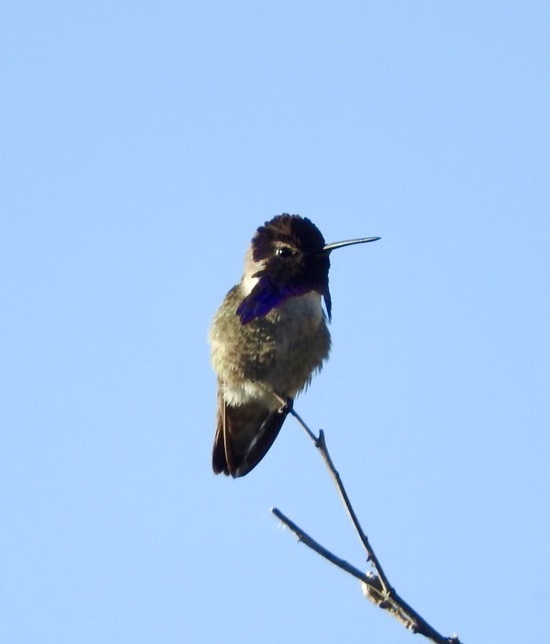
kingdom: Animalia
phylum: Chordata
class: Aves
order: Apodiformes
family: Trochilidae
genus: Calypte
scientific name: Calypte costae
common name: Costa's hummingbird
